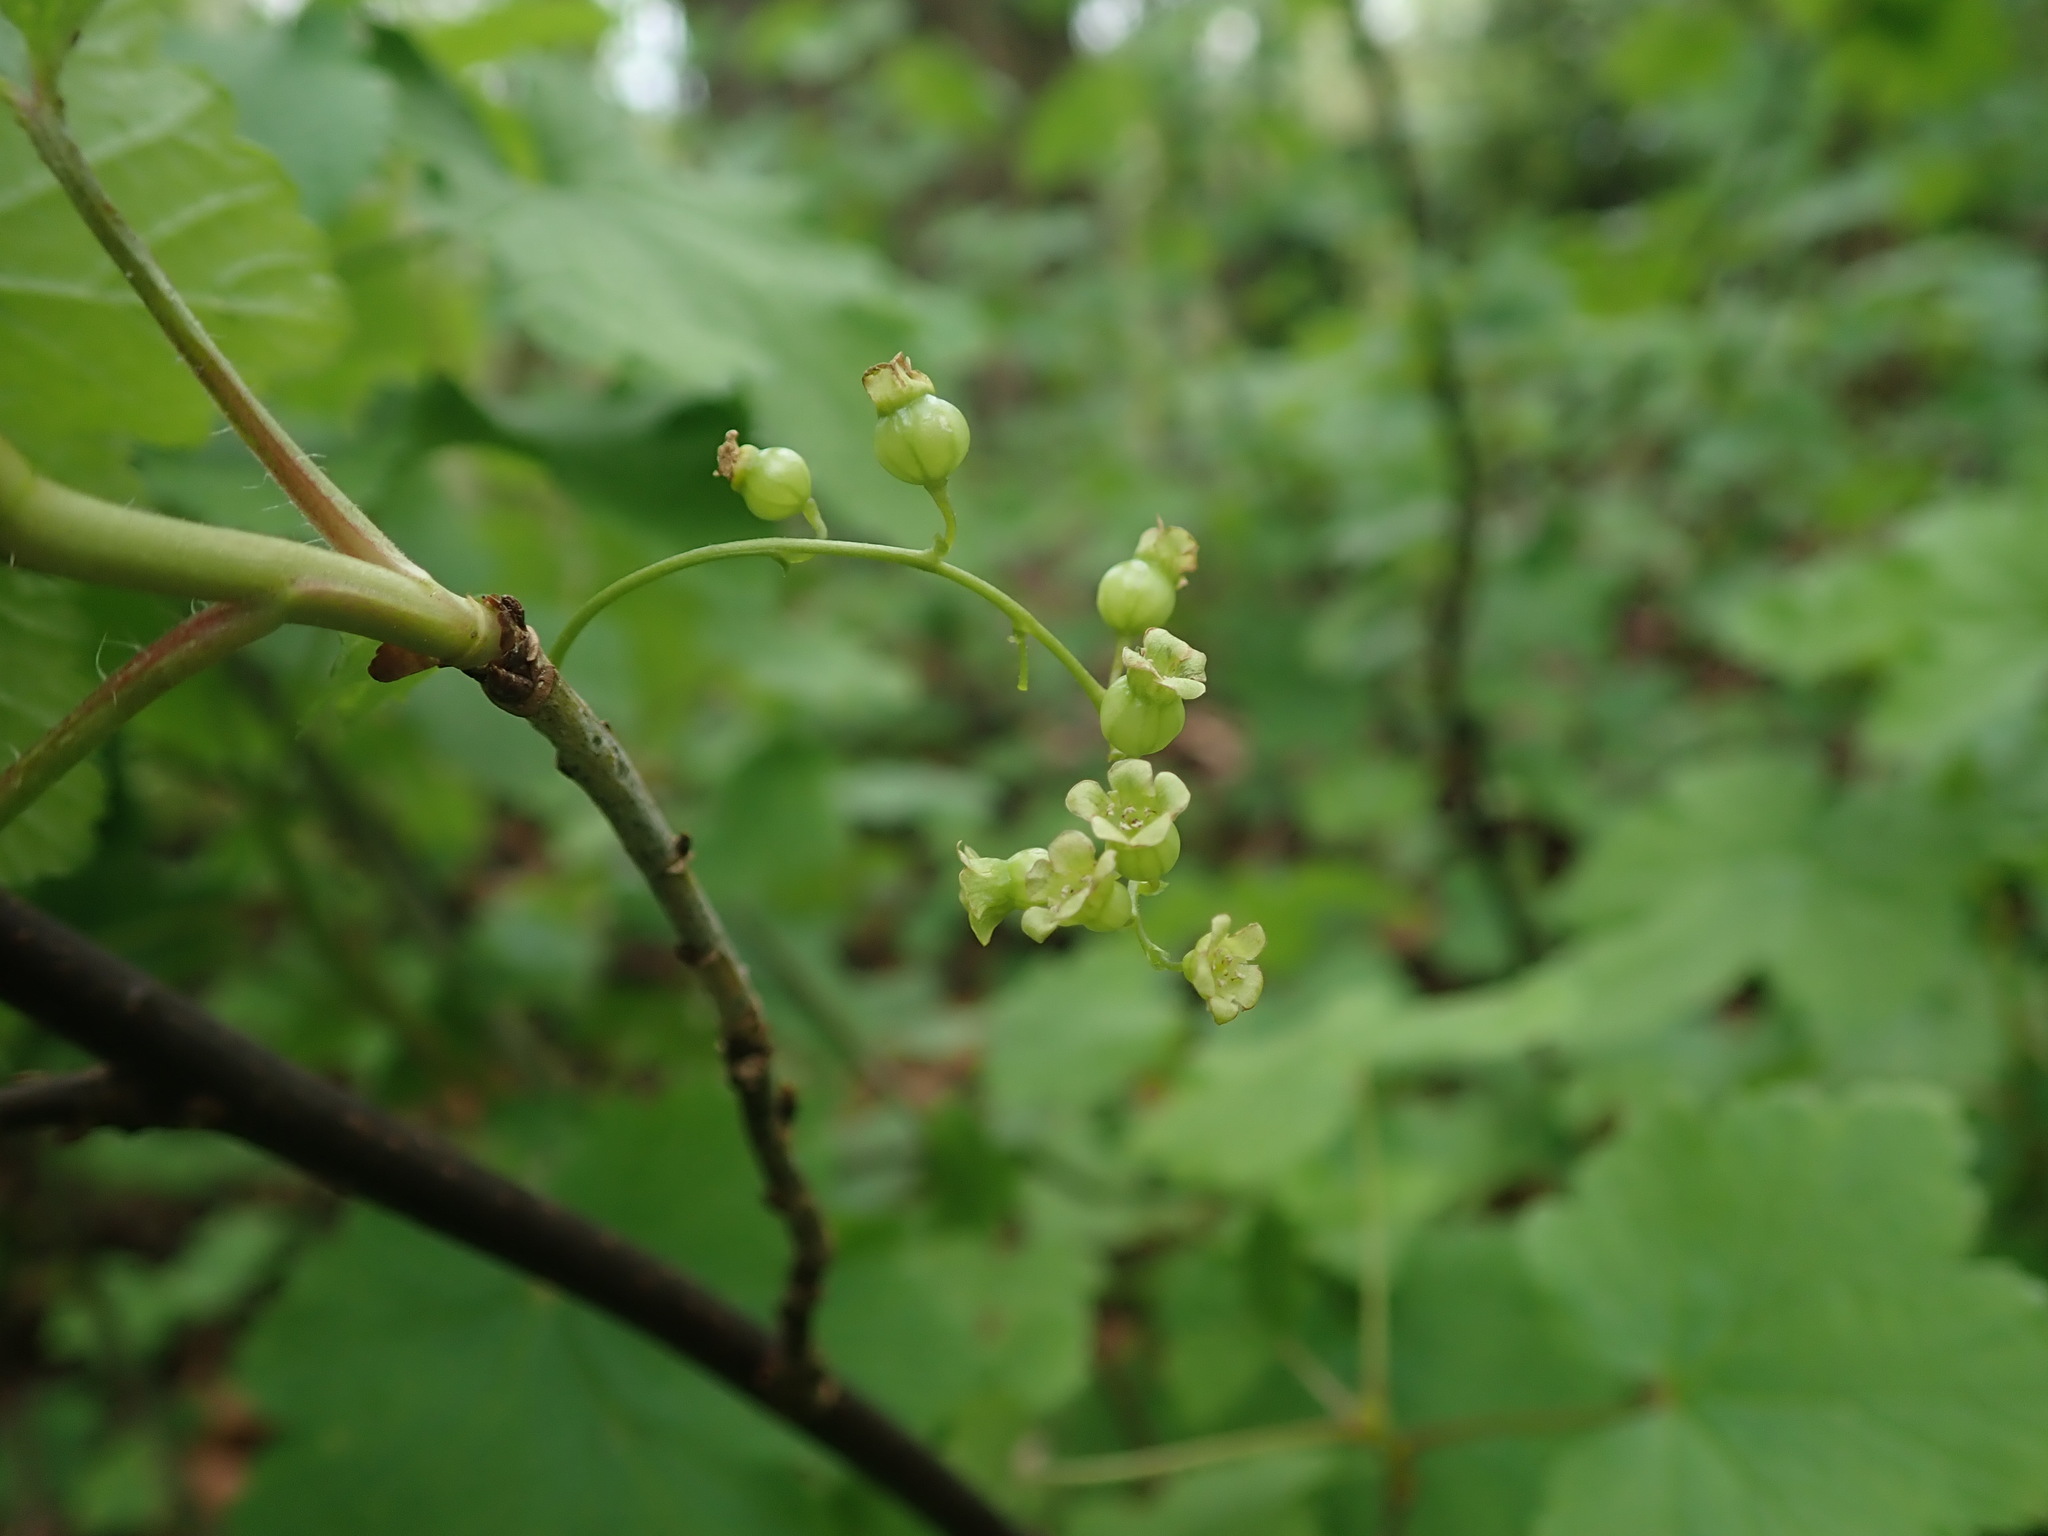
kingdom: Plantae
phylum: Tracheophyta
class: Magnoliopsida
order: Saxifragales
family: Grossulariaceae
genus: Ribes
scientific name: Ribes rubrum
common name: Red currant
